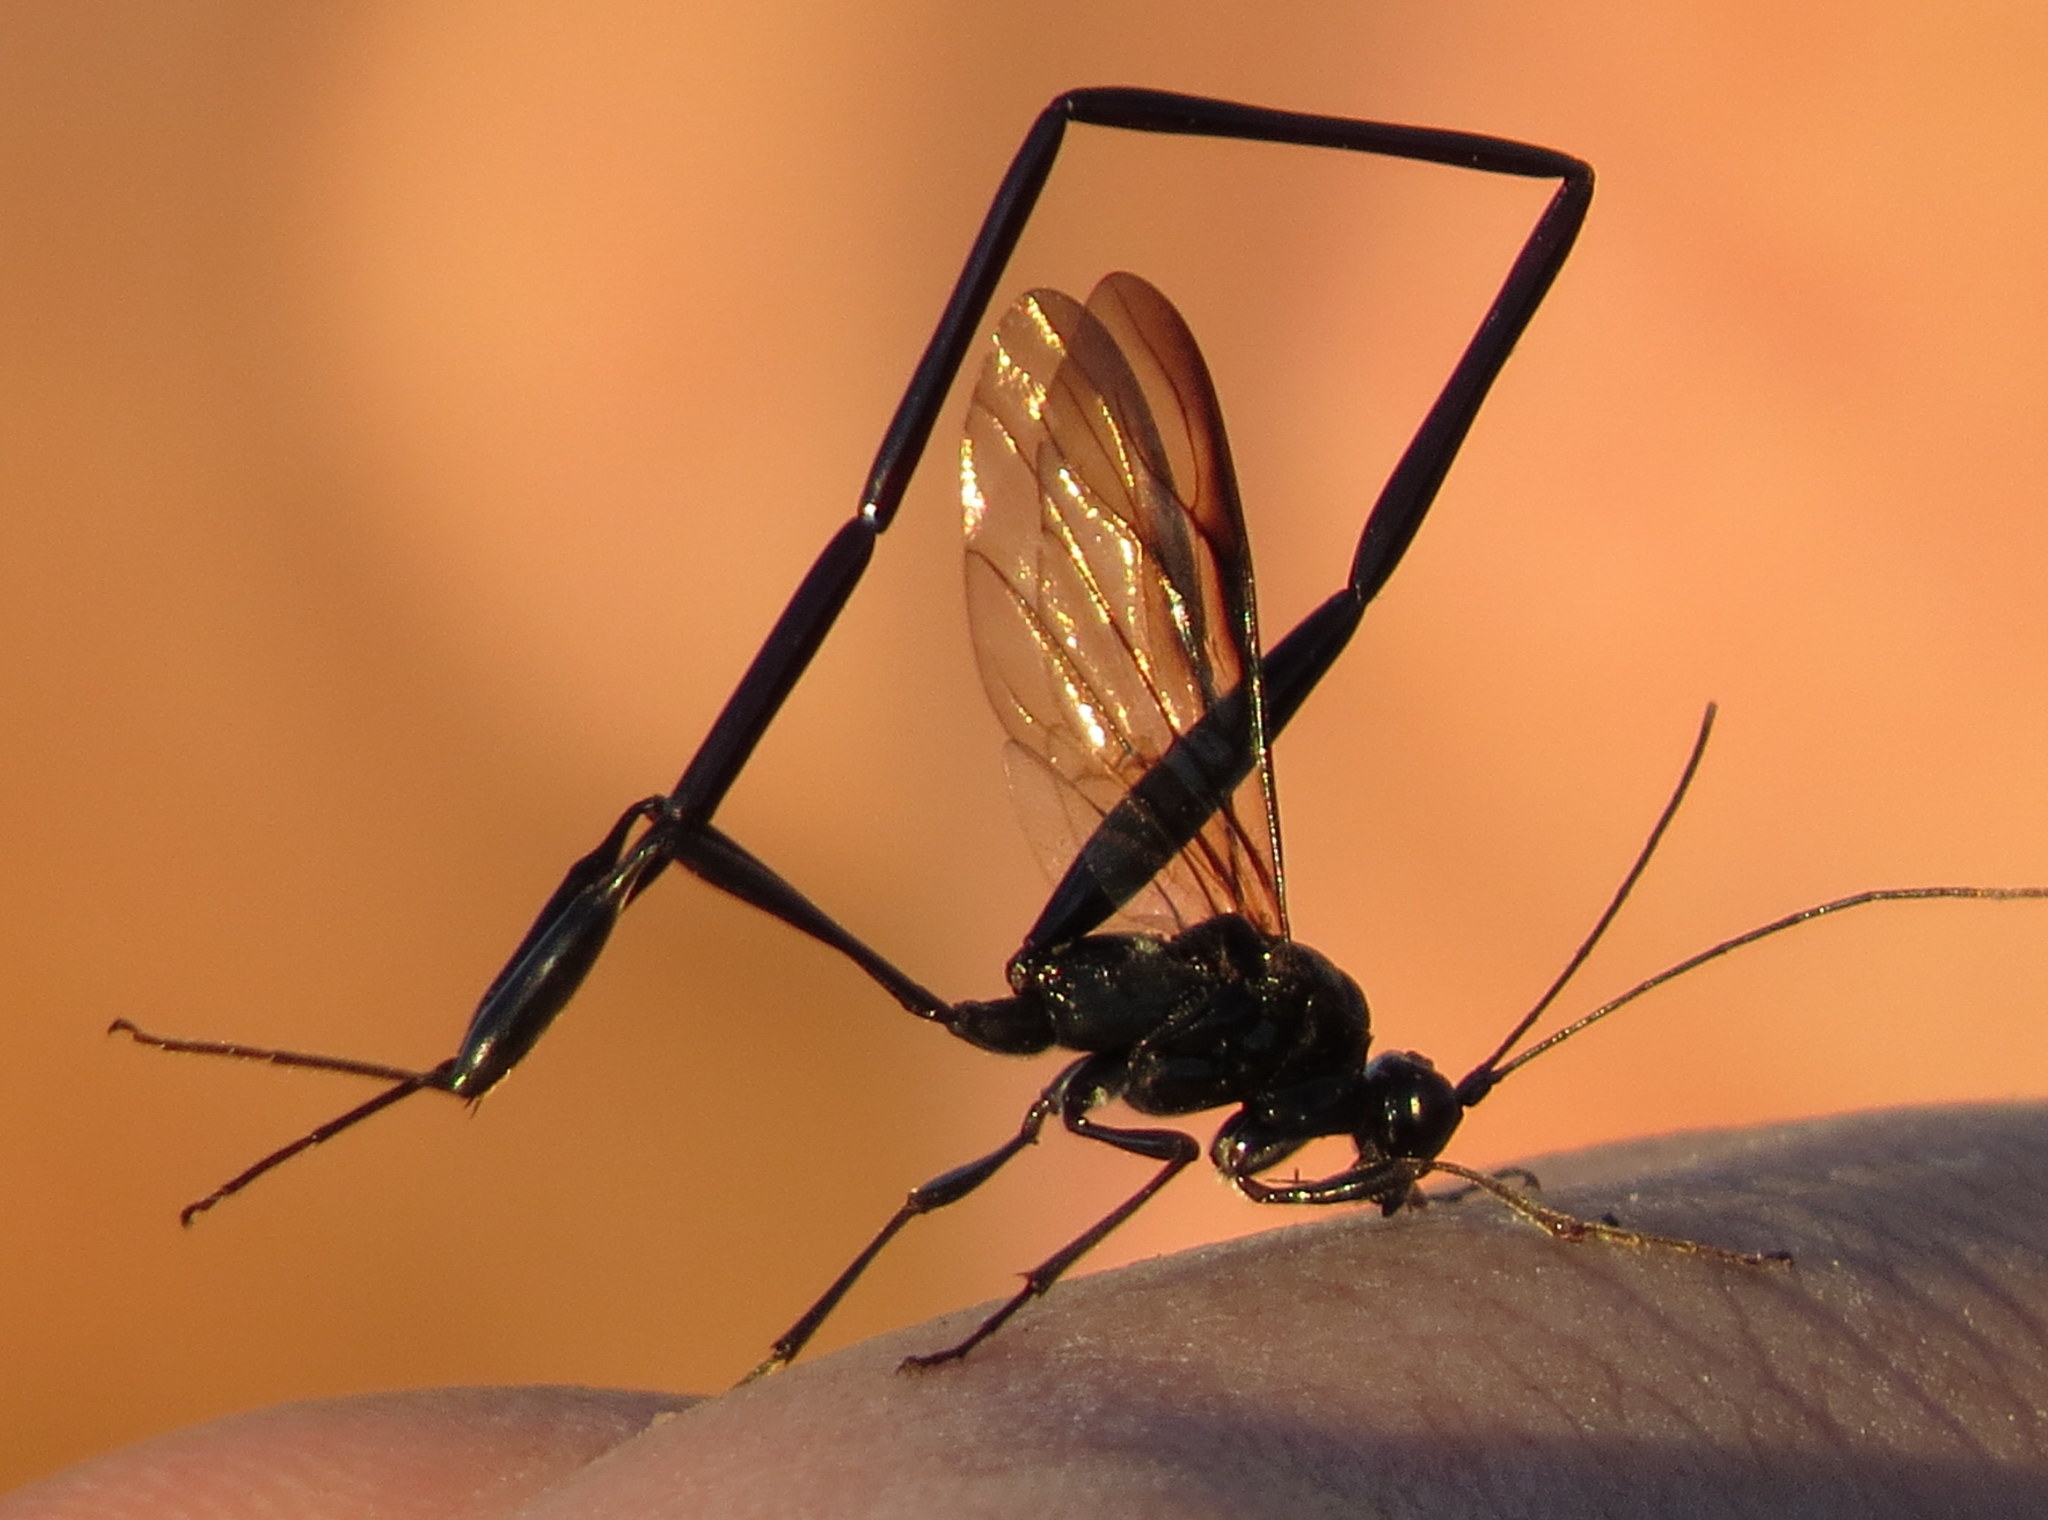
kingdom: Animalia
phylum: Arthropoda
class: Insecta
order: Hymenoptera
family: Pelecinidae
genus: Pelecinus
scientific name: Pelecinus polyturator
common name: American pelecinid wasp
